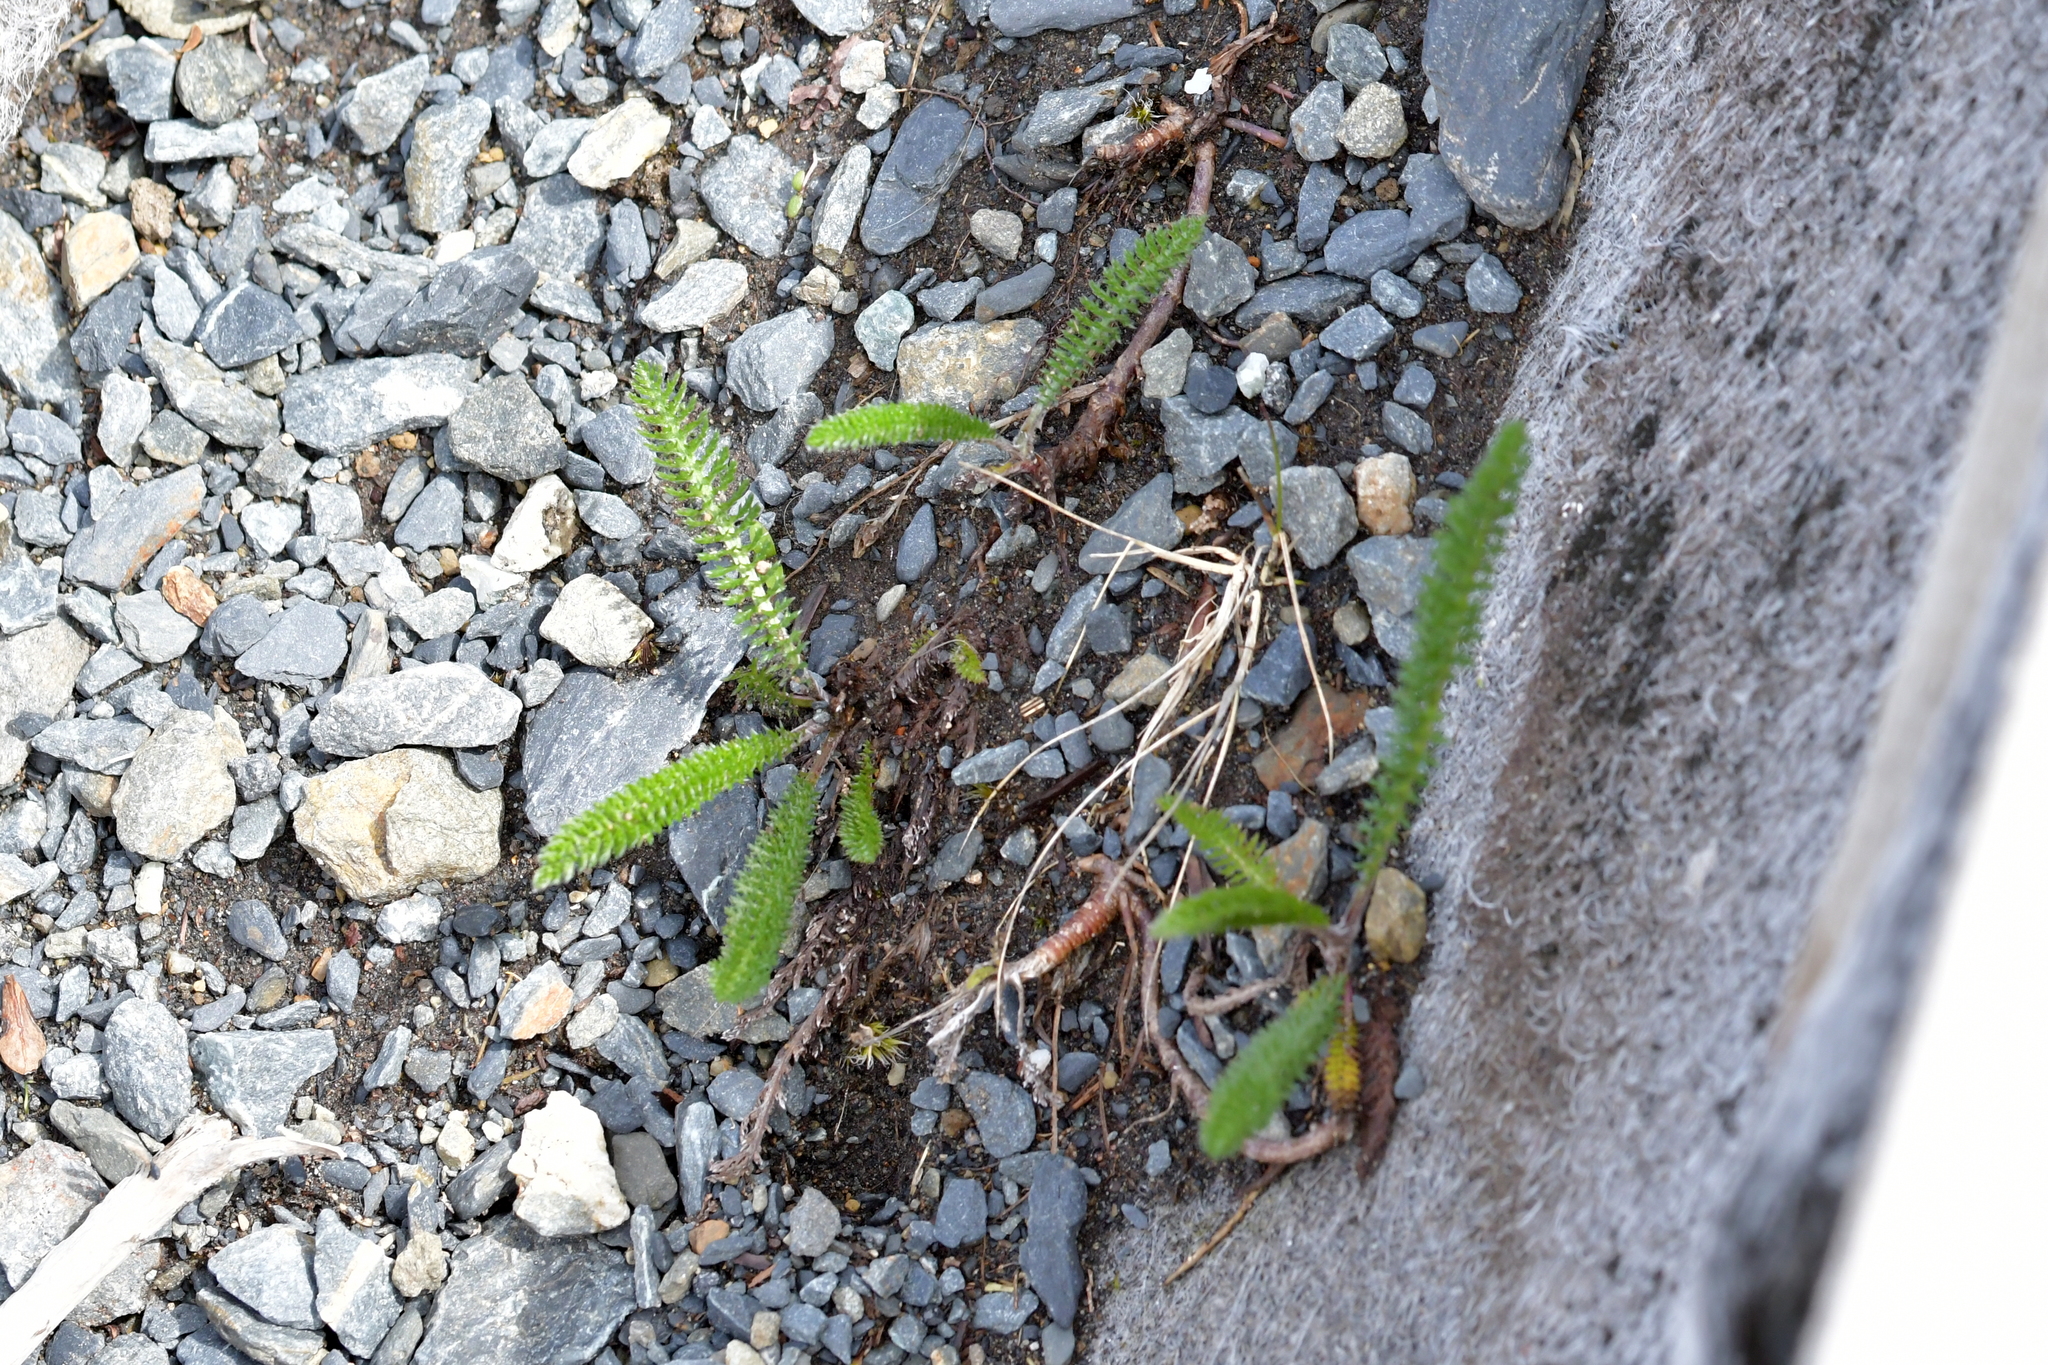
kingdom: Plantae
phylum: Tracheophyta
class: Magnoliopsida
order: Asterales
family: Asteraceae
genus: Achillea
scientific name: Achillea millefolium
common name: Yarrow
